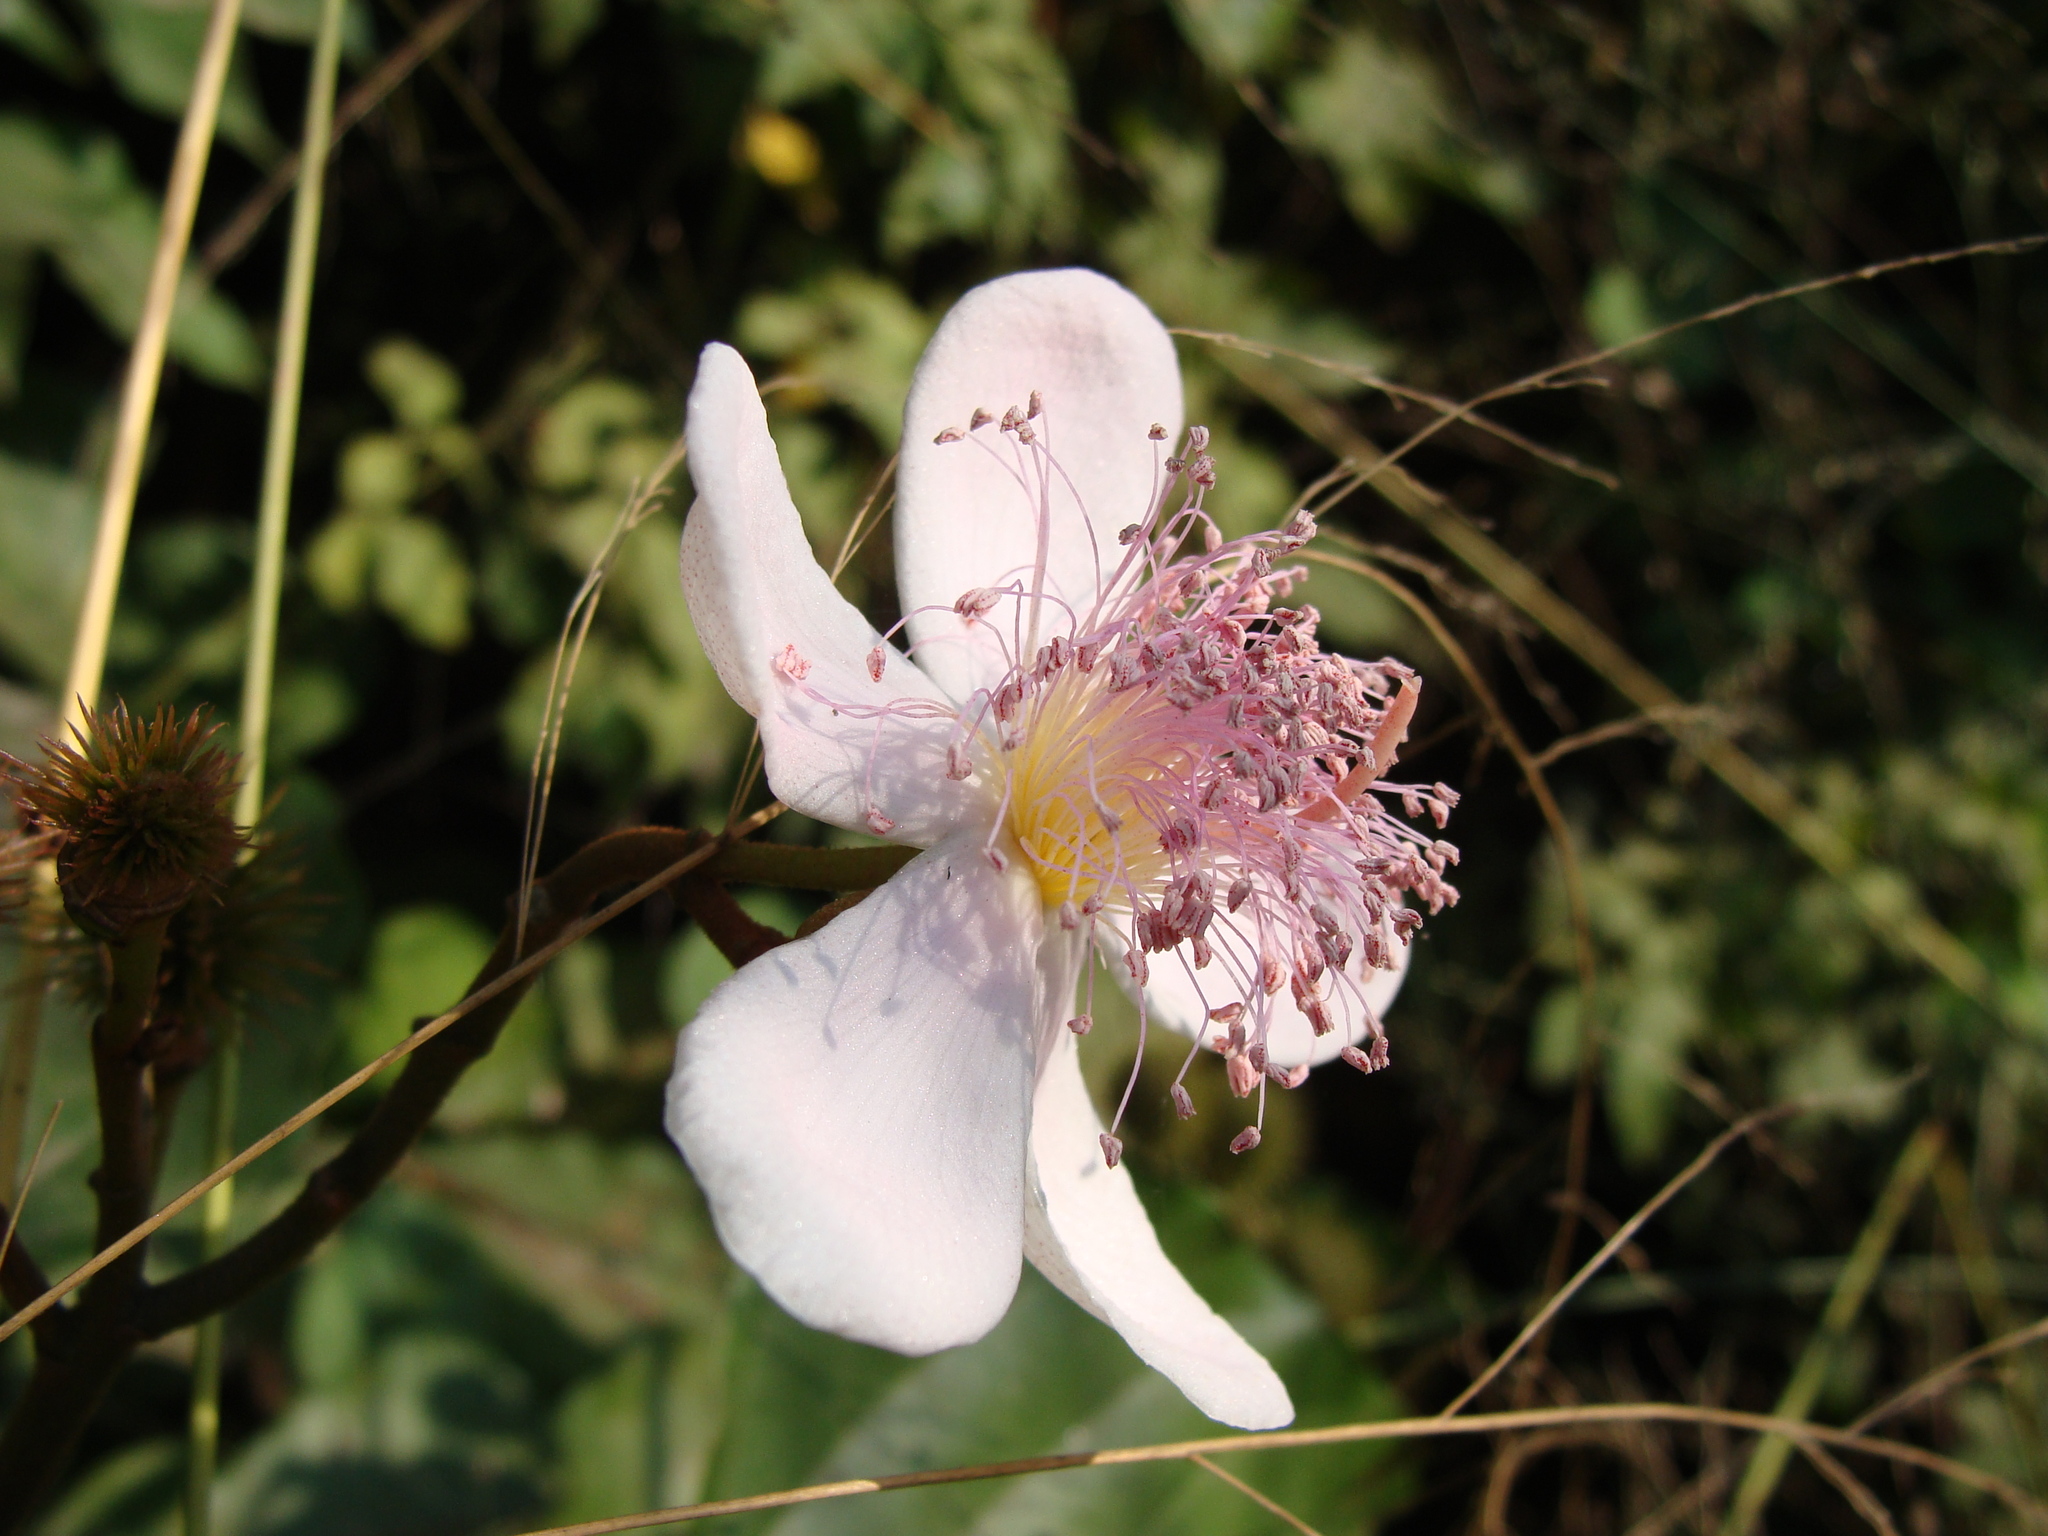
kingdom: Plantae
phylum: Tracheophyta
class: Magnoliopsida
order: Malvales
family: Bixaceae
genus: Bixa
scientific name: Bixa orellana
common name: Lipsticktree
